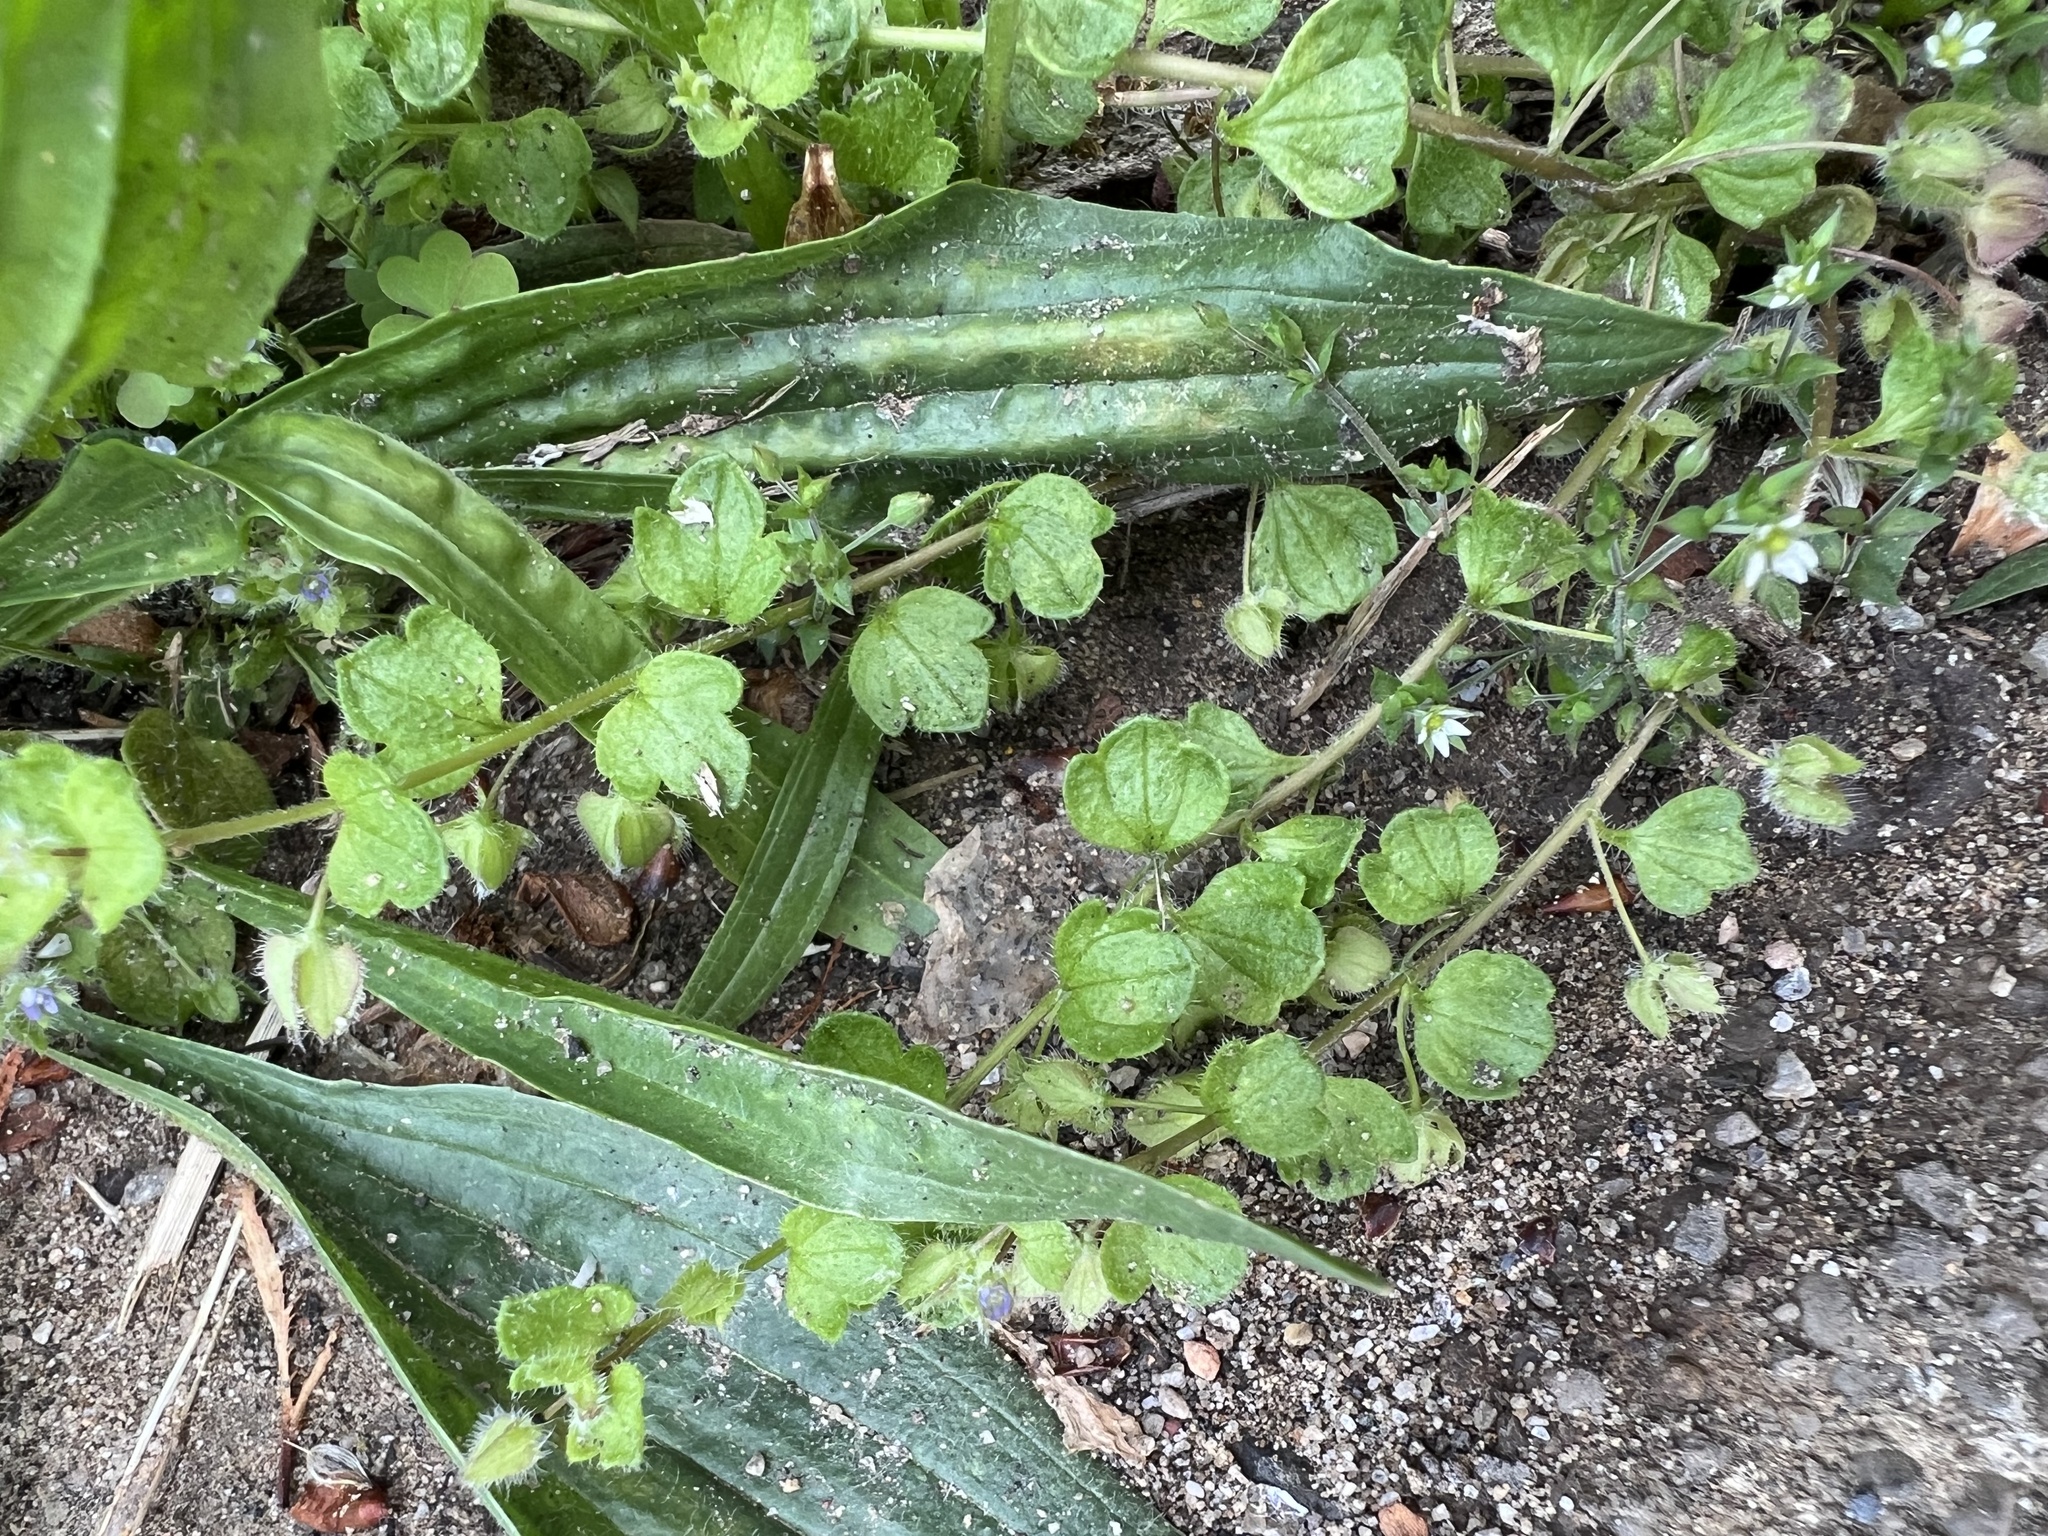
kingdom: Plantae
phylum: Tracheophyta
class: Magnoliopsida
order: Lamiales
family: Plantaginaceae
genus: Veronica
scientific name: Veronica hederifolia
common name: Ivy-leaved speedwell
